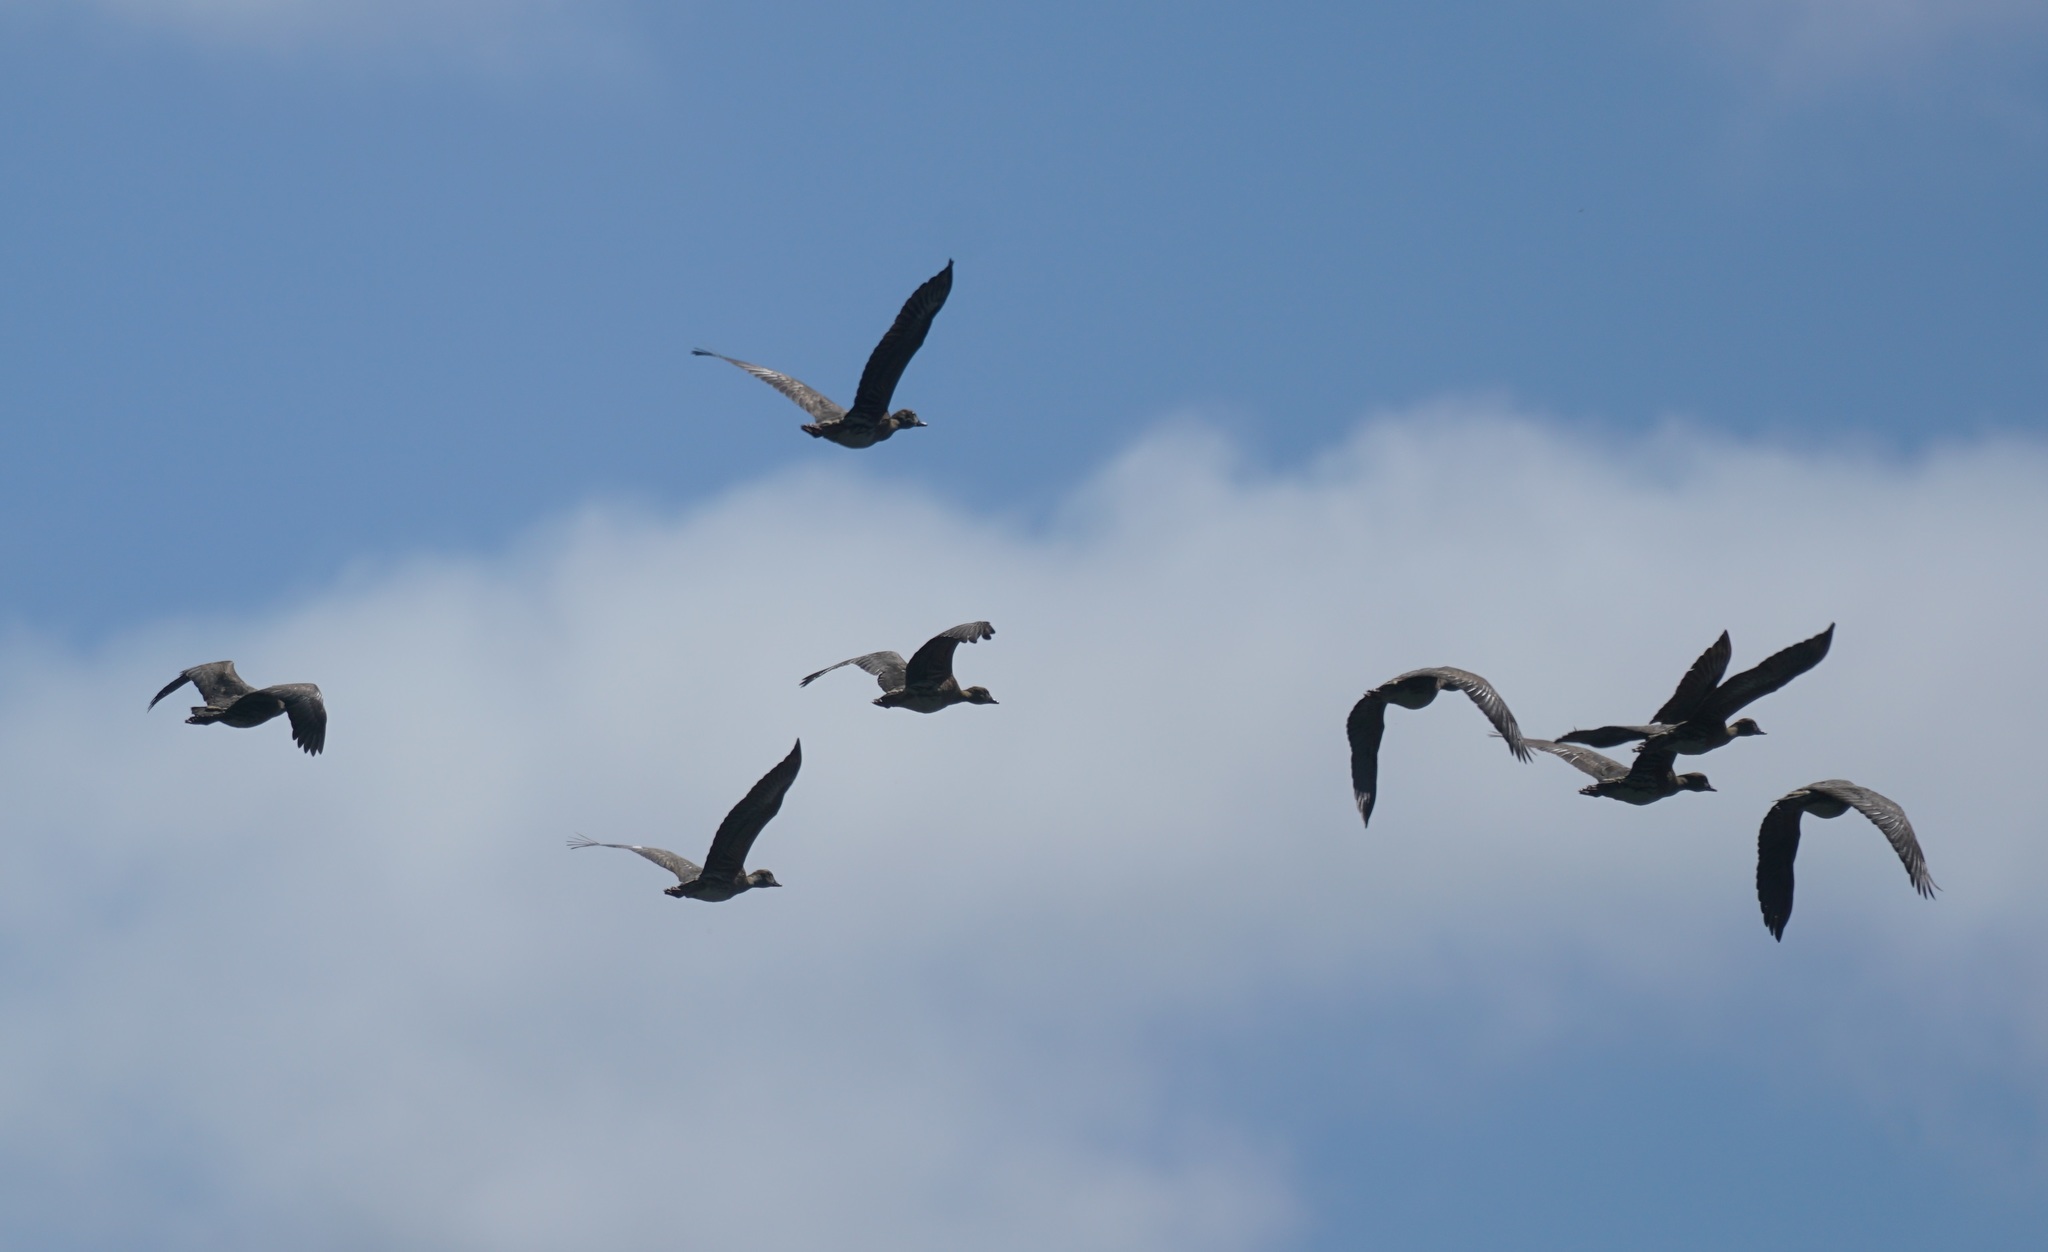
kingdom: Animalia
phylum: Chordata
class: Aves
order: Anseriformes
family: Anatidae
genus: Dendrocygna
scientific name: Dendrocygna eytoni
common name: Plumed whistling-duck
